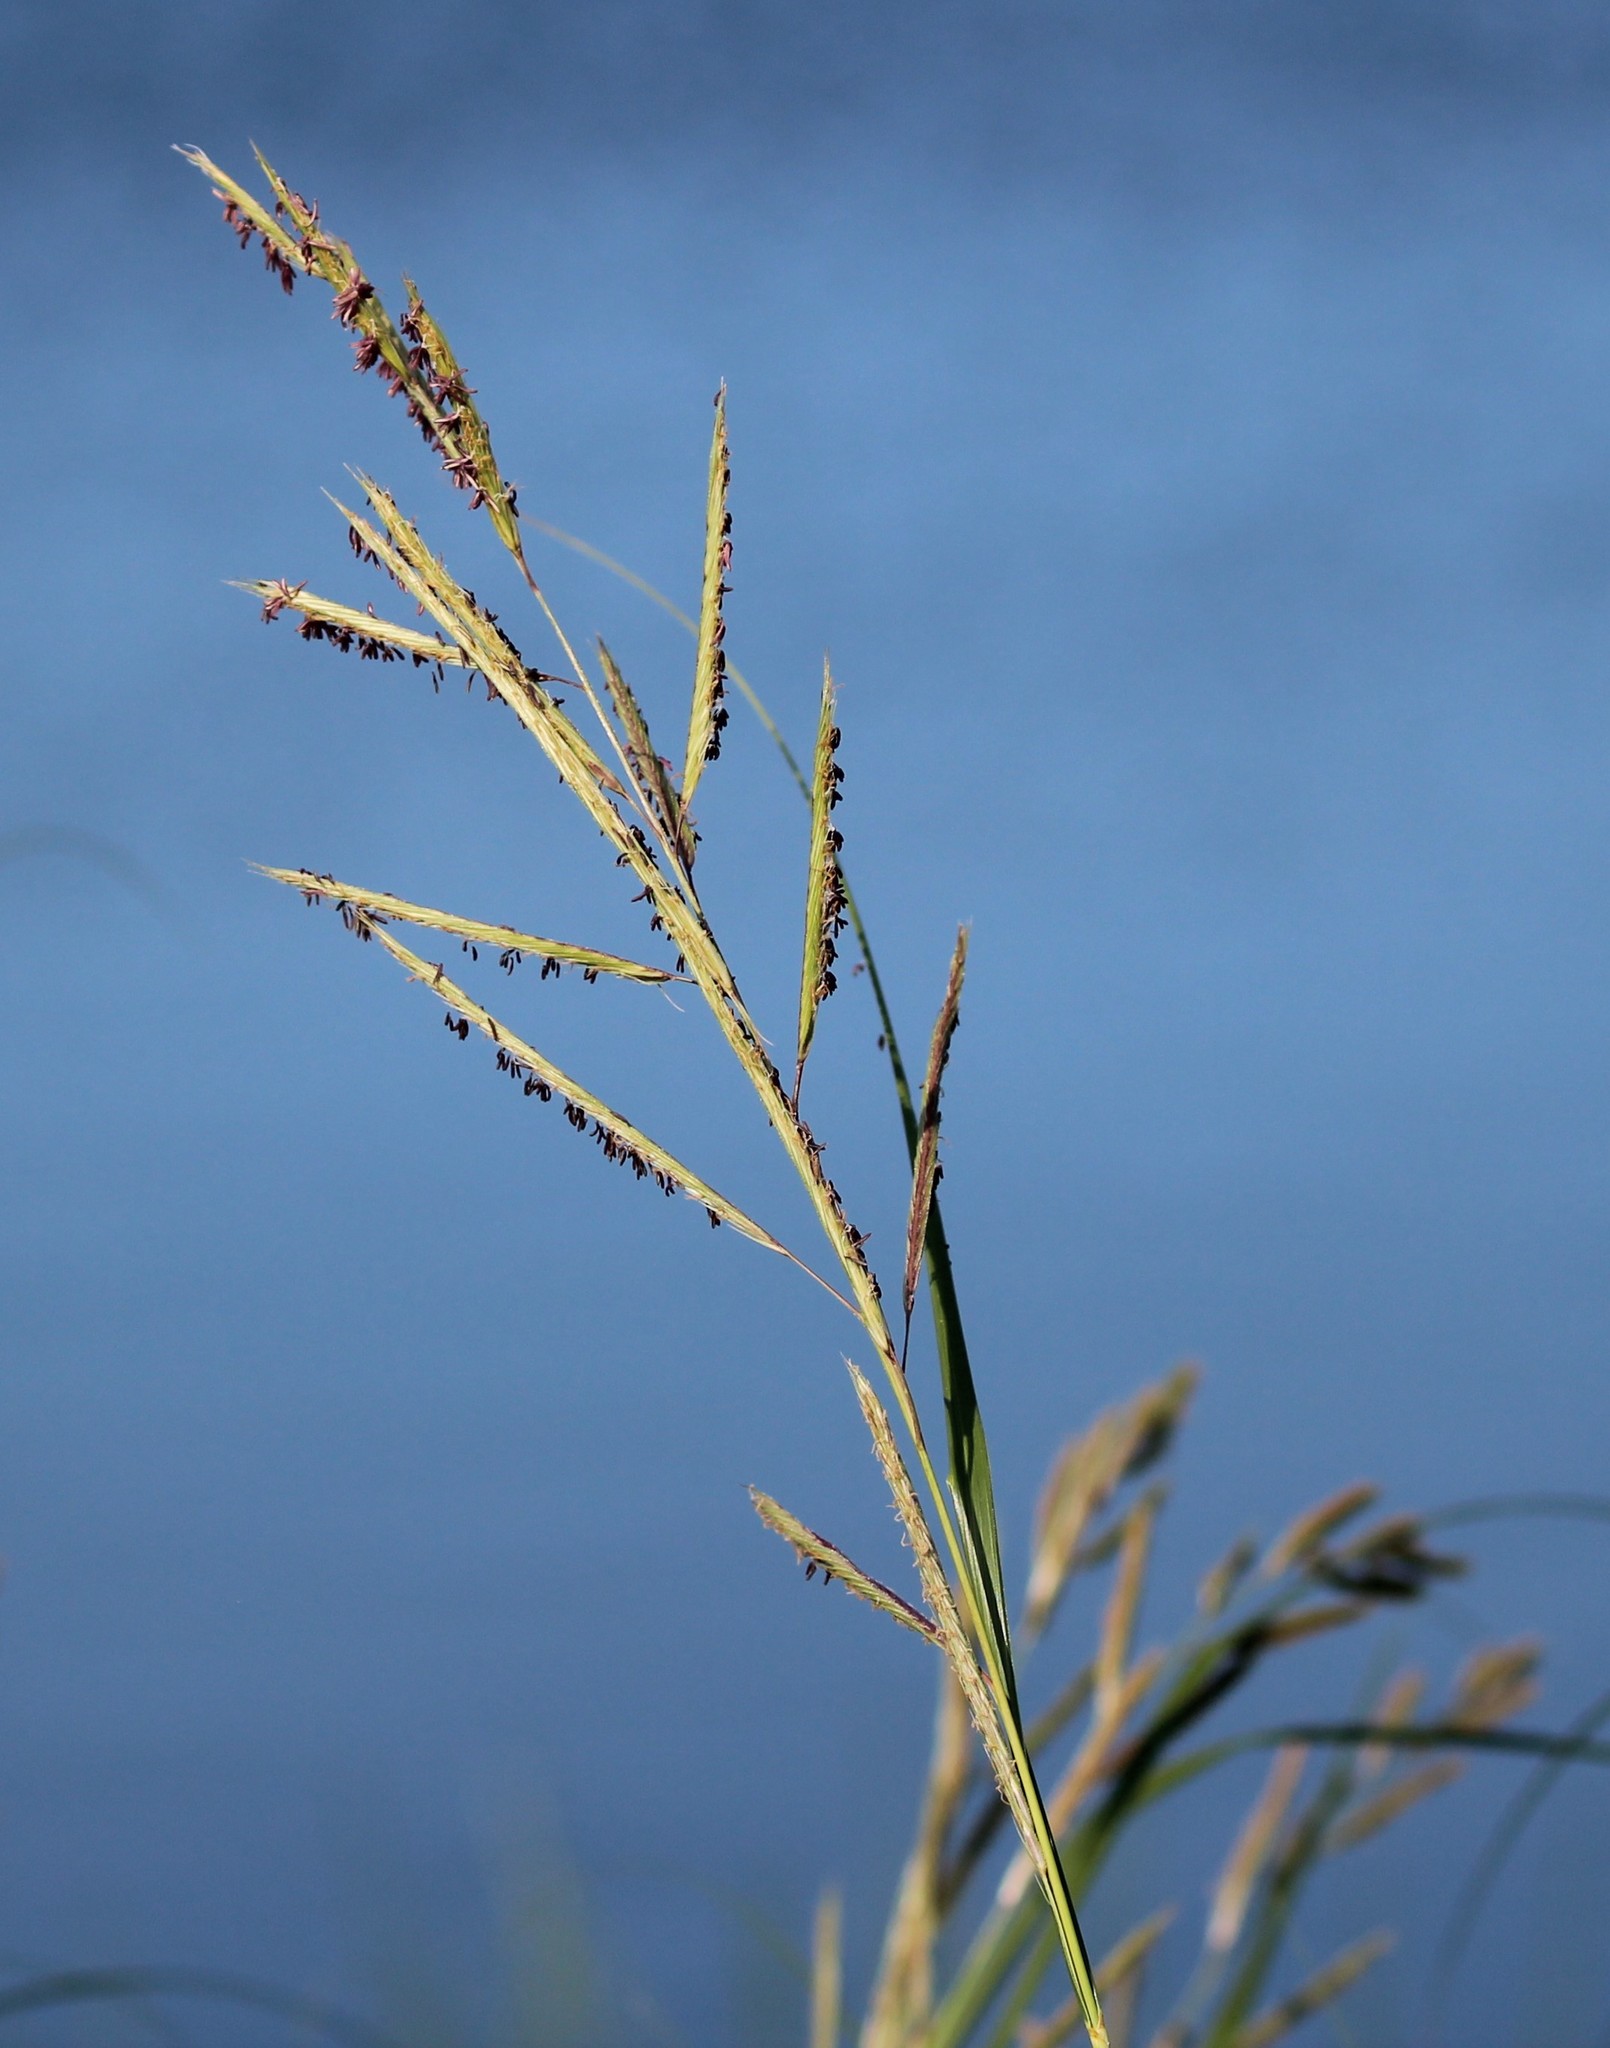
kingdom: Plantae
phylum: Tracheophyta
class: Liliopsida
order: Poales
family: Poaceae
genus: Sporobolus
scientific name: Sporobolus michauxianus
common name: Freshwater cordgrass
